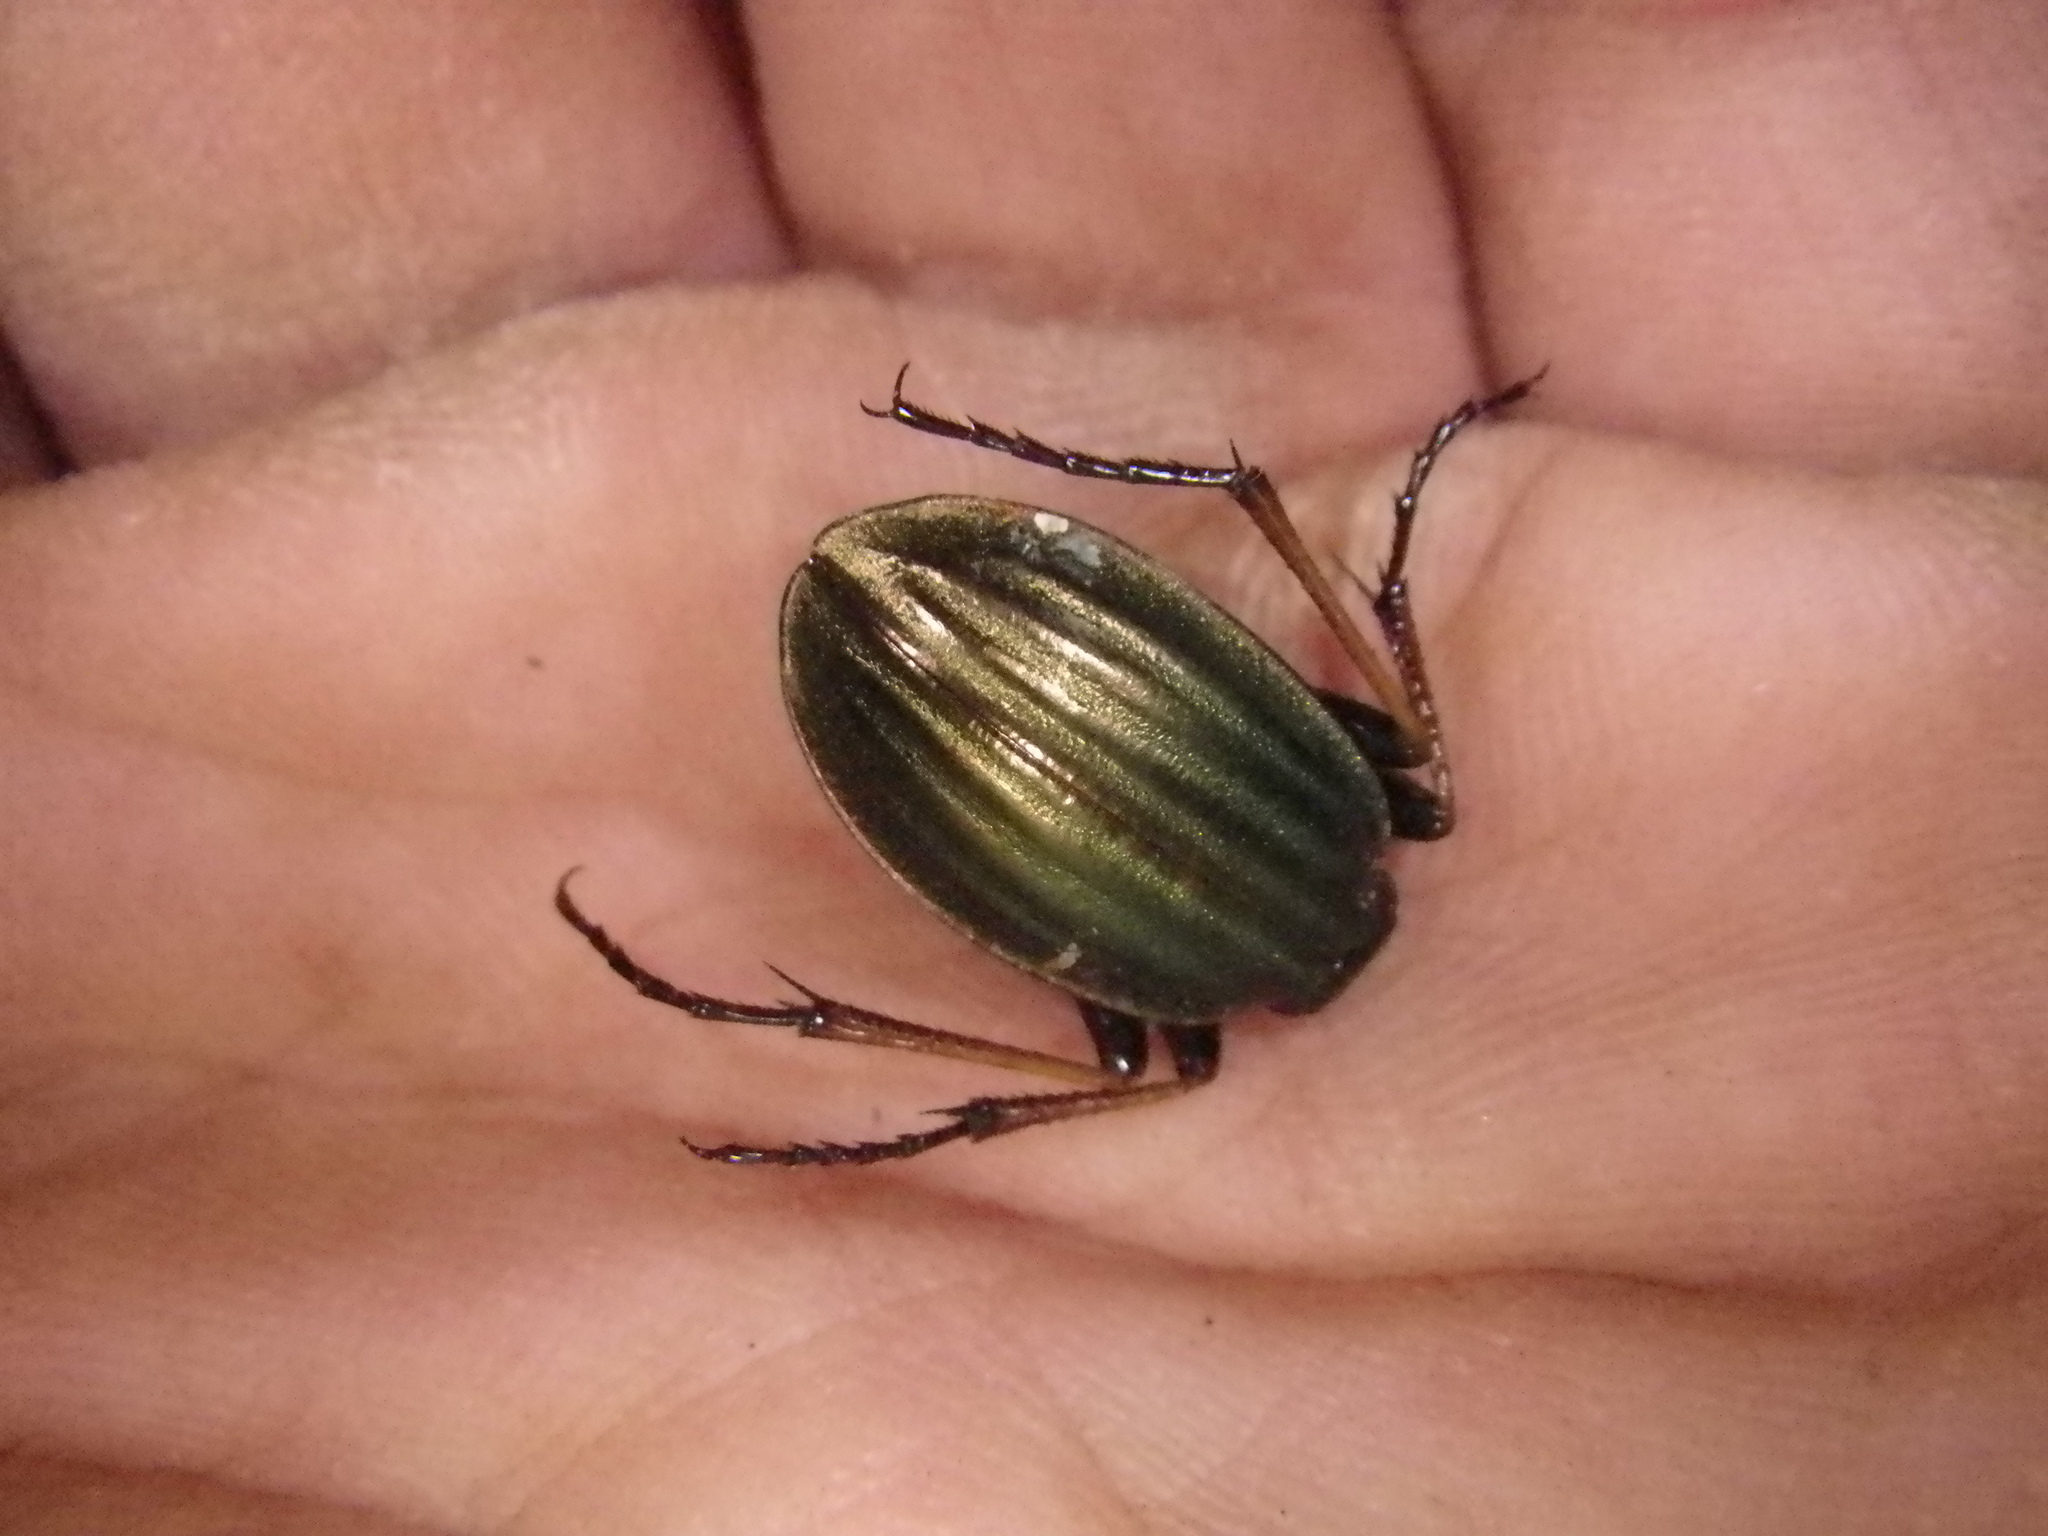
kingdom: Animalia
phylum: Arthropoda
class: Insecta
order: Coleoptera
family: Carabidae
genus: Carabus
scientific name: Carabus auratus
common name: Golden ground beetle
